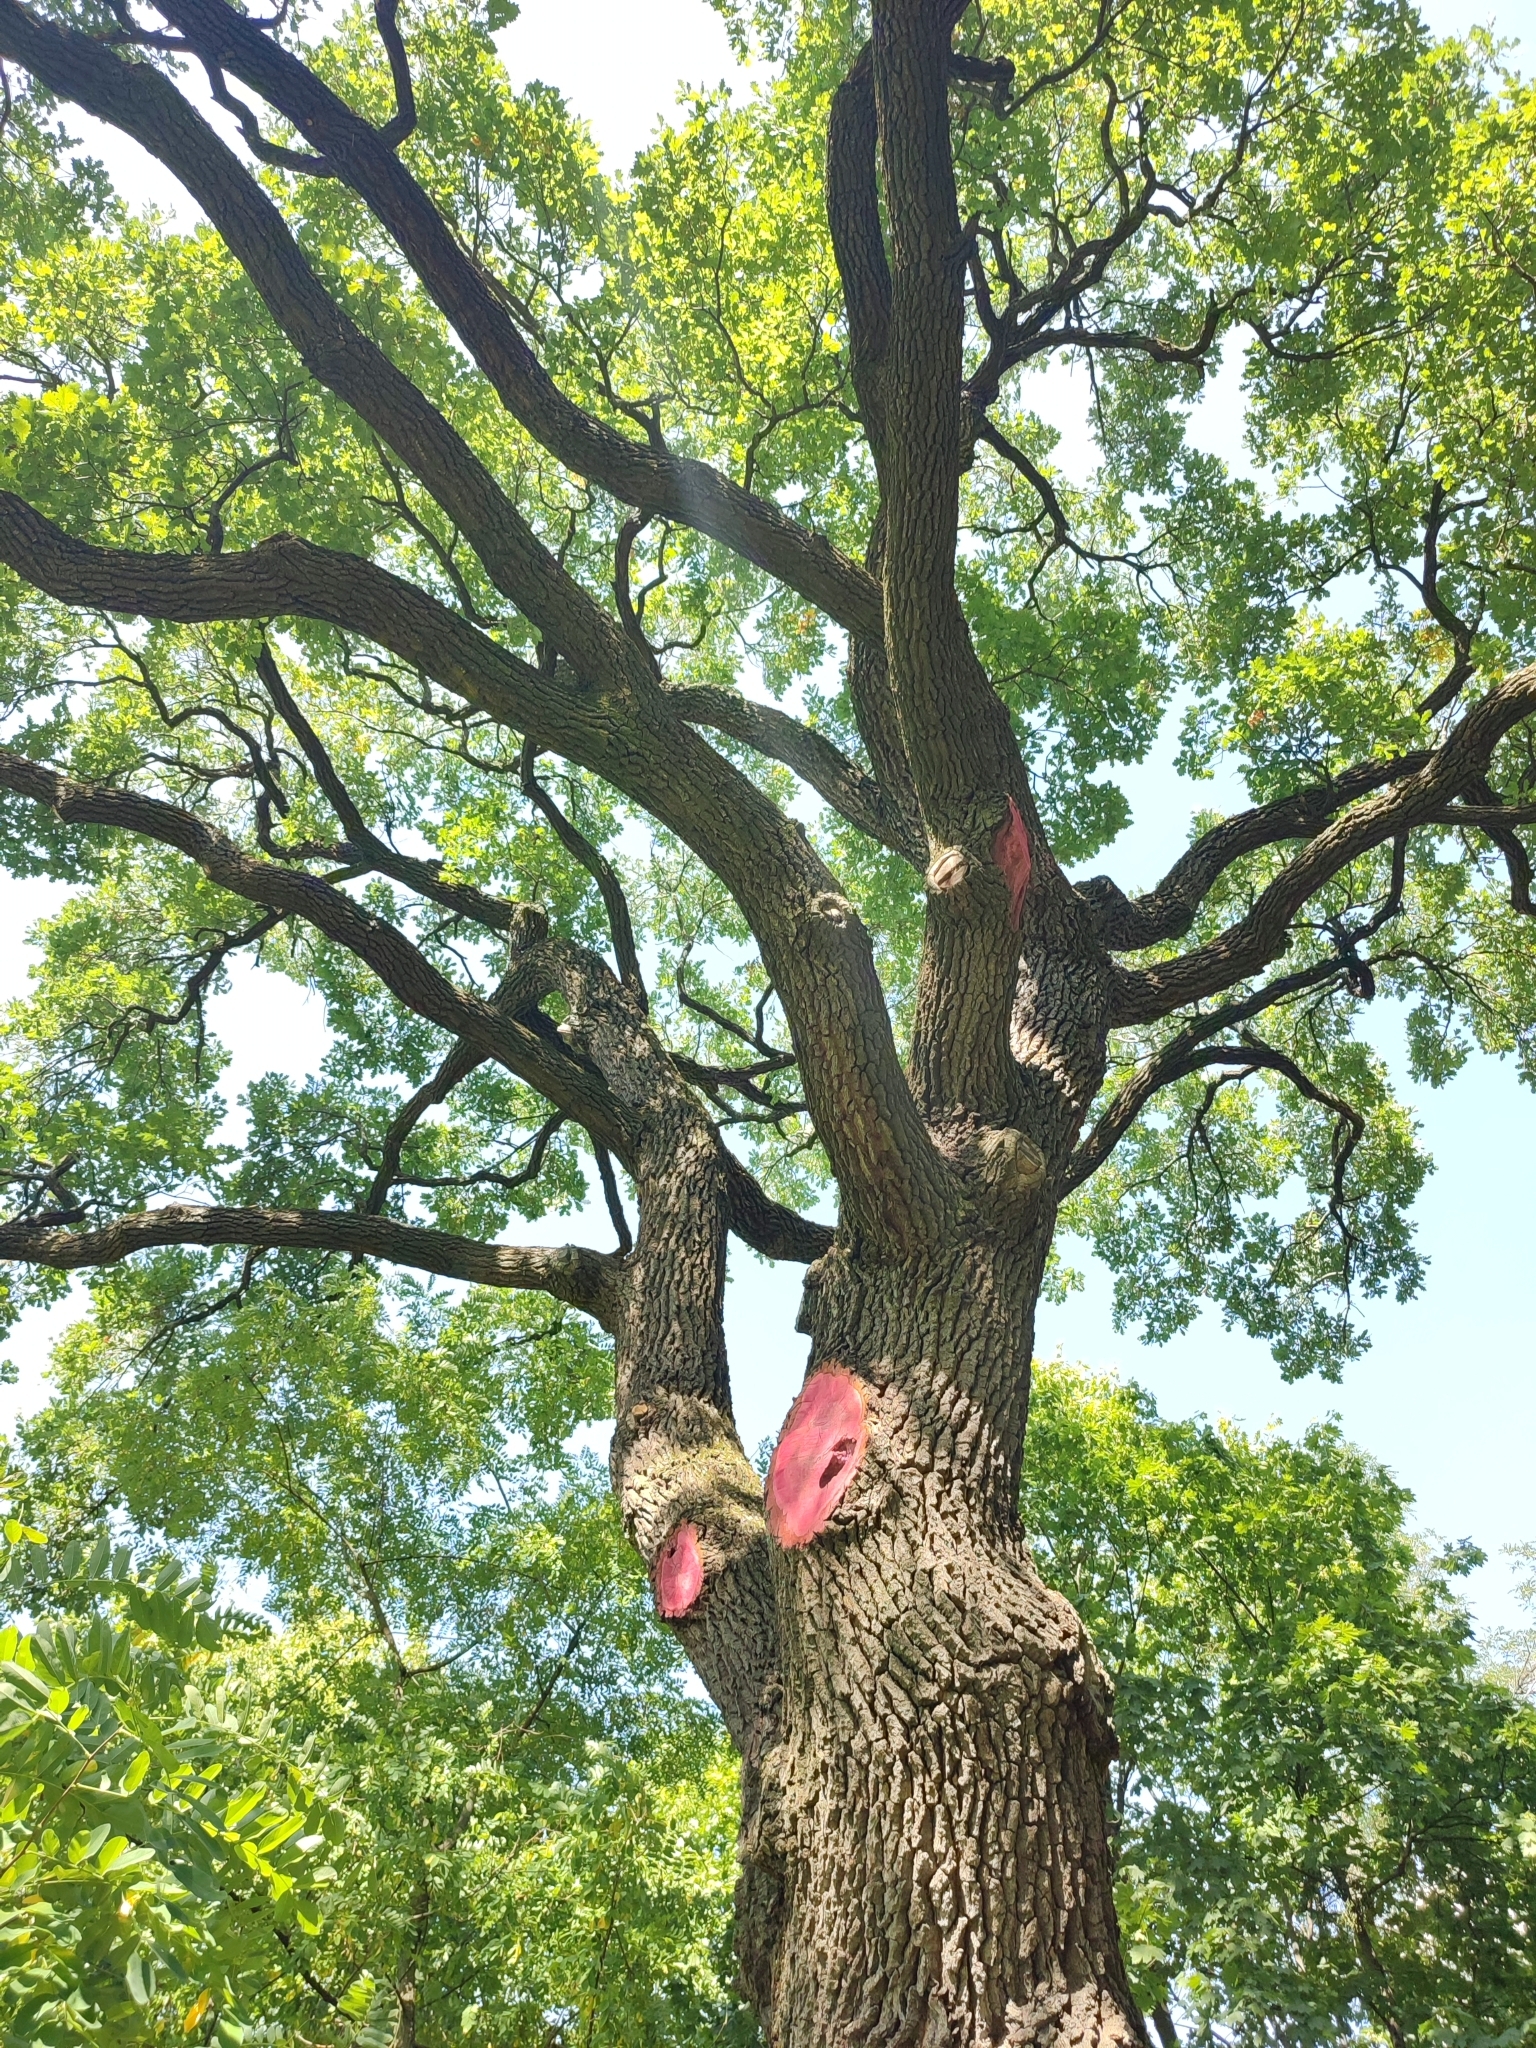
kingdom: Plantae
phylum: Tracheophyta
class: Magnoliopsida
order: Fagales
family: Fagaceae
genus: Quercus
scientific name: Quercus robur
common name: Pedunculate oak
